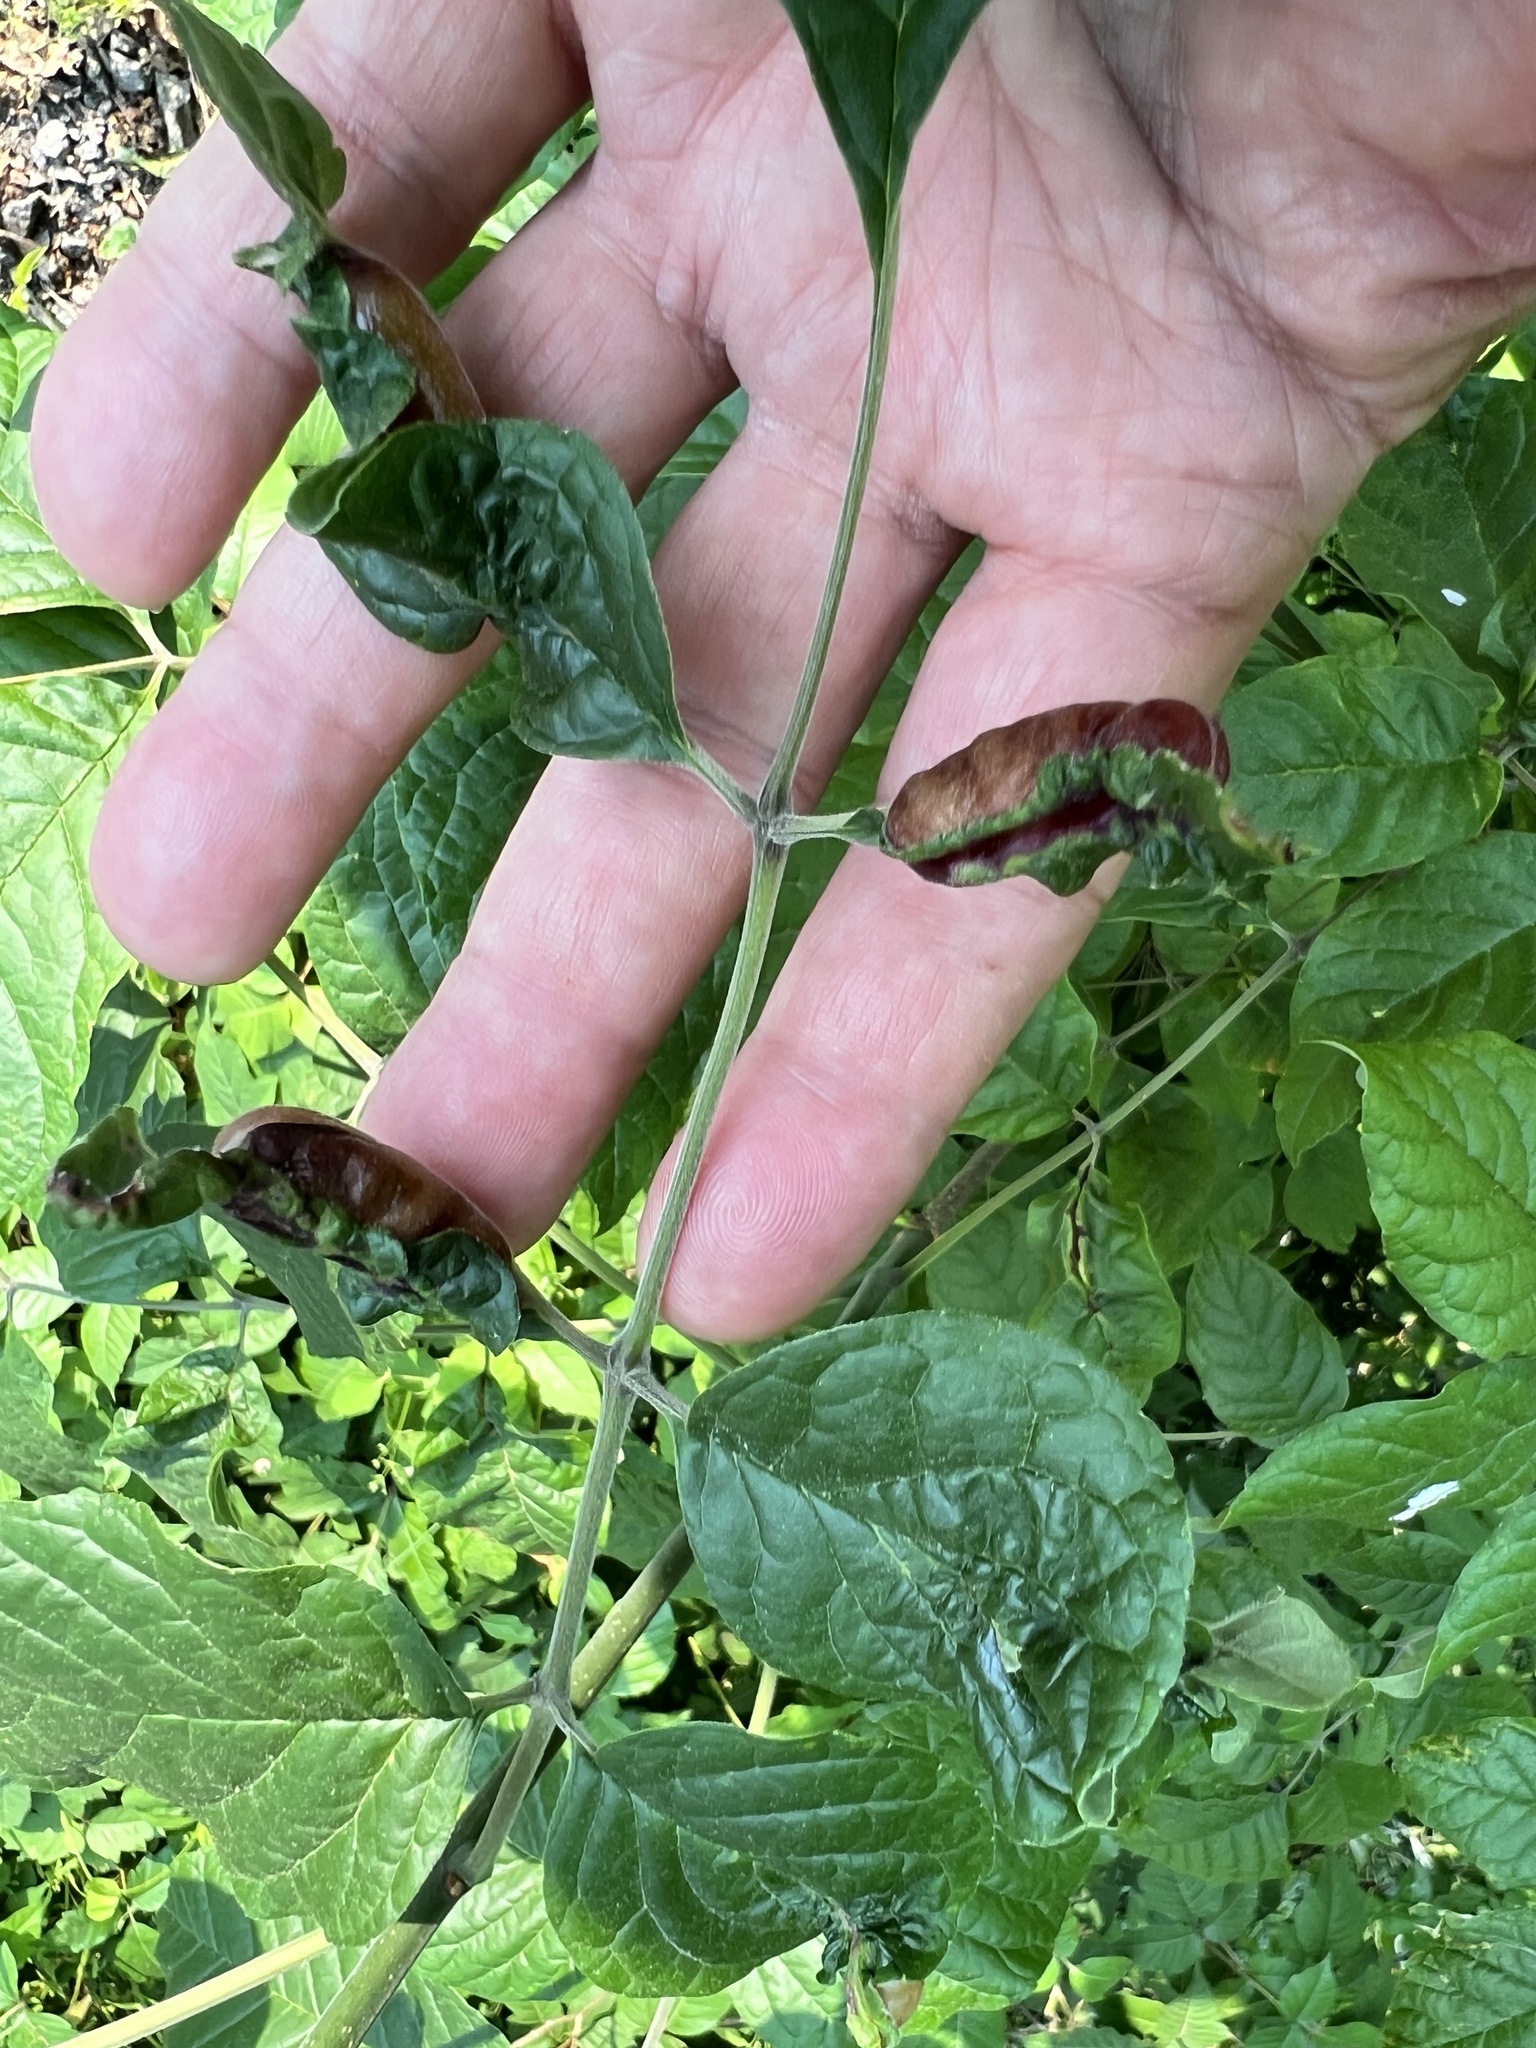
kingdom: Animalia
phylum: Arthropoda
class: Insecta
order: Diptera
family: Cecidomyiidae
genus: Dasineura
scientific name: Dasineura tumidosae
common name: Ash petiole gall midge
